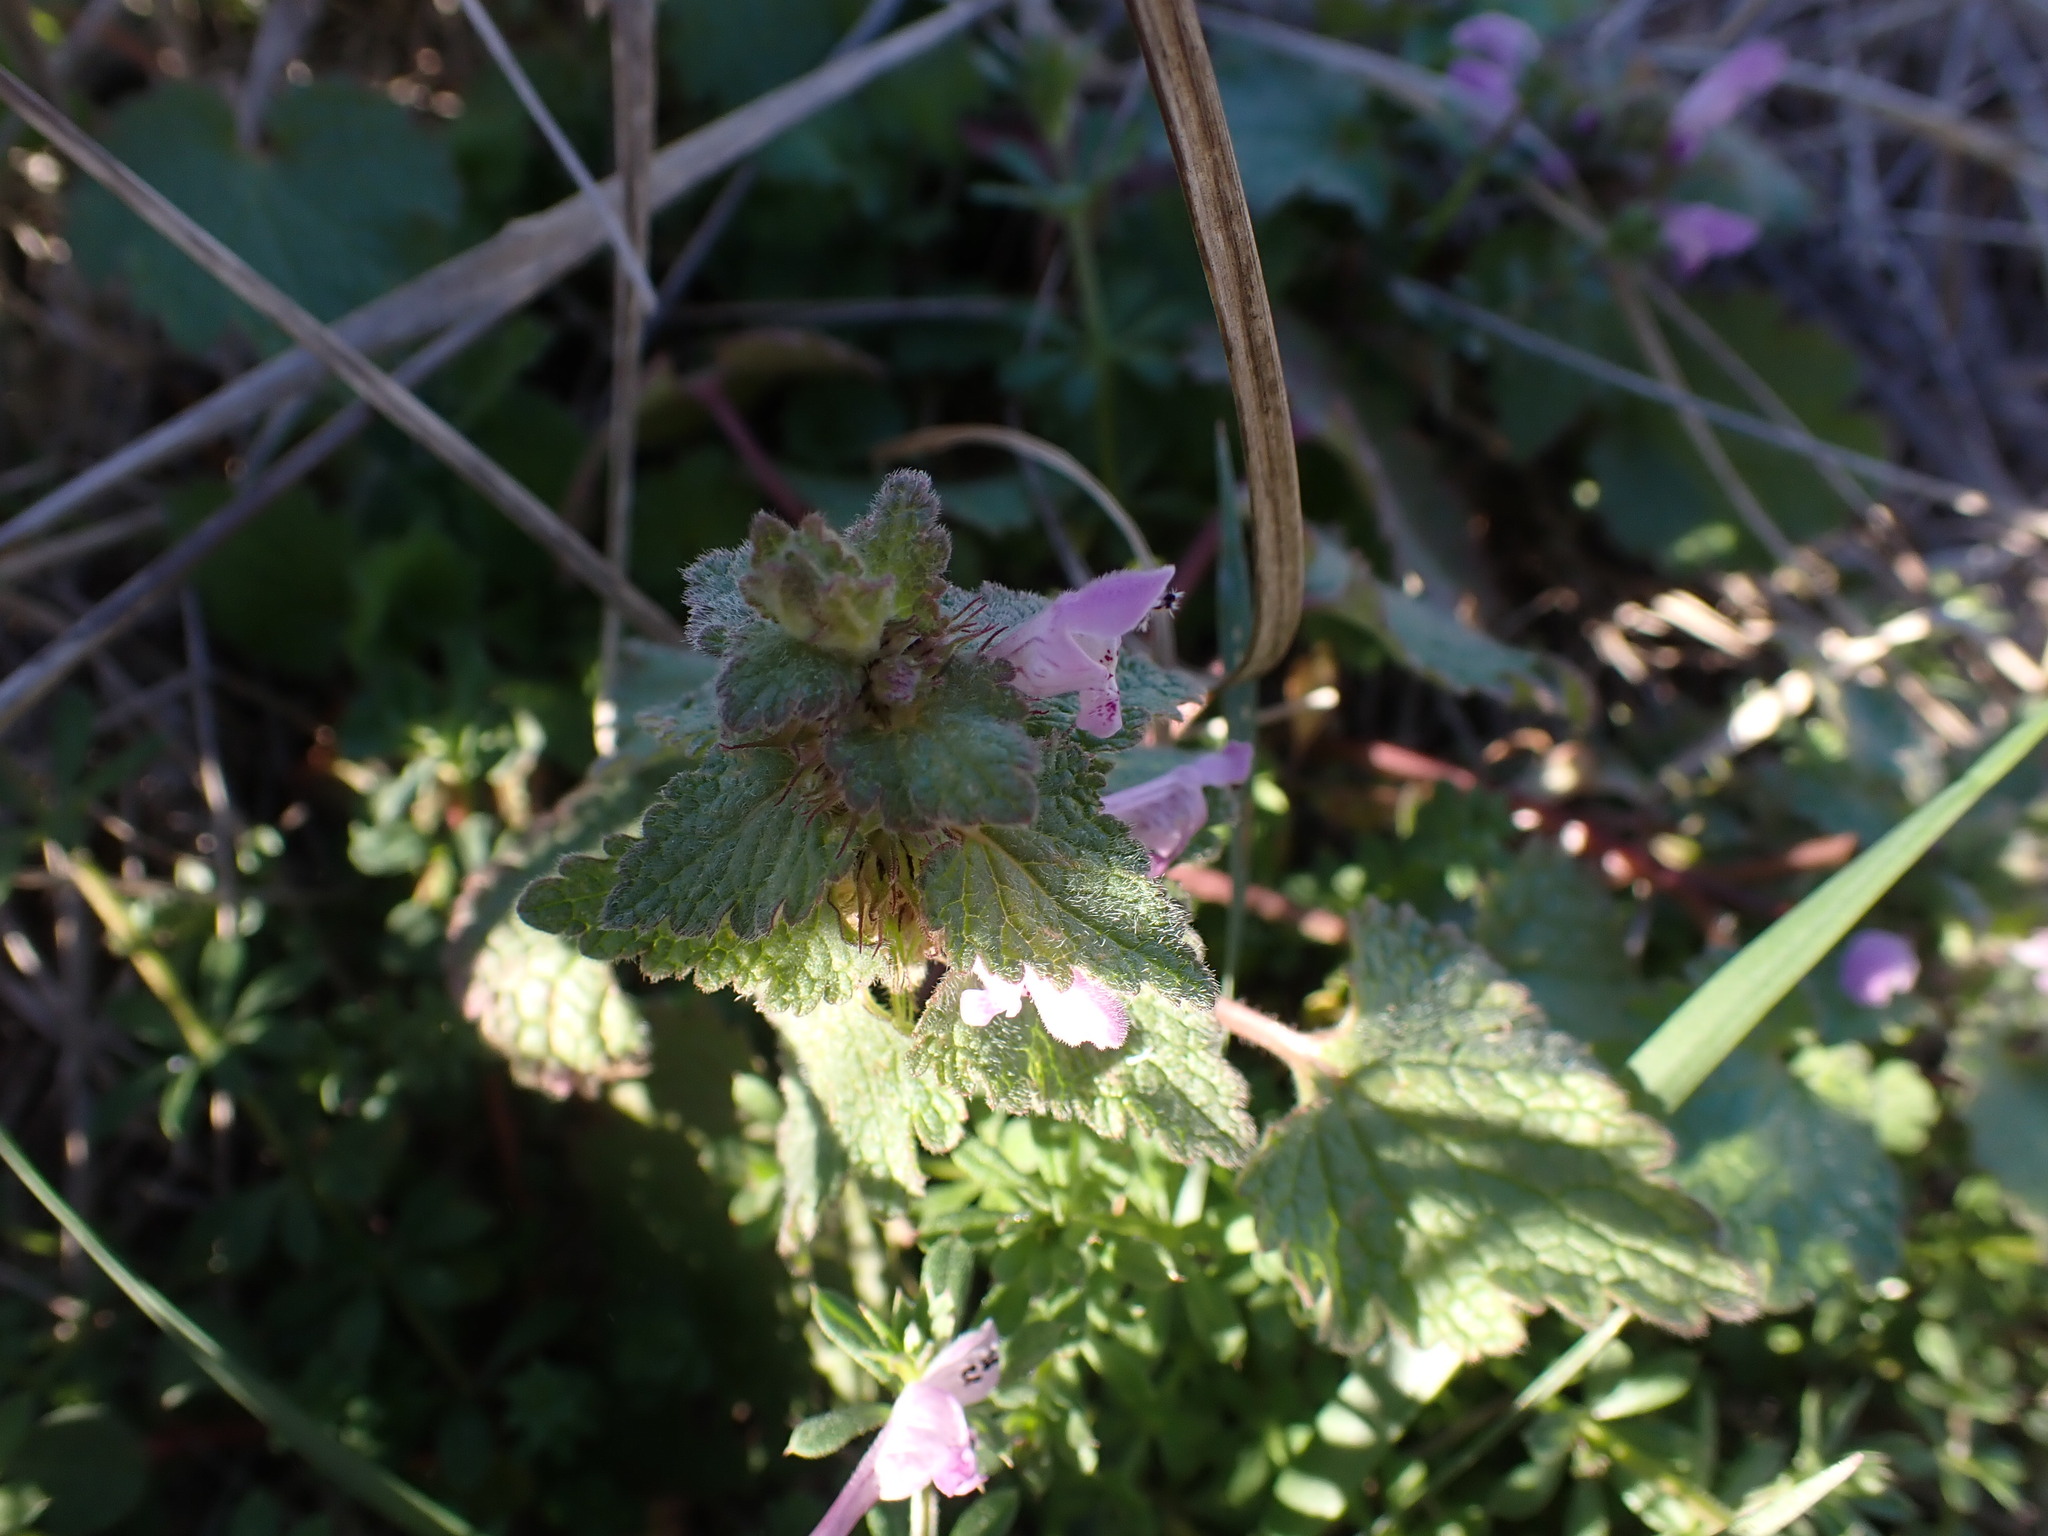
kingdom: Plantae
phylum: Tracheophyta
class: Magnoliopsida
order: Lamiales
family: Lamiaceae
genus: Lamium
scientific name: Lamium purpureum
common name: Red dead-nettle
